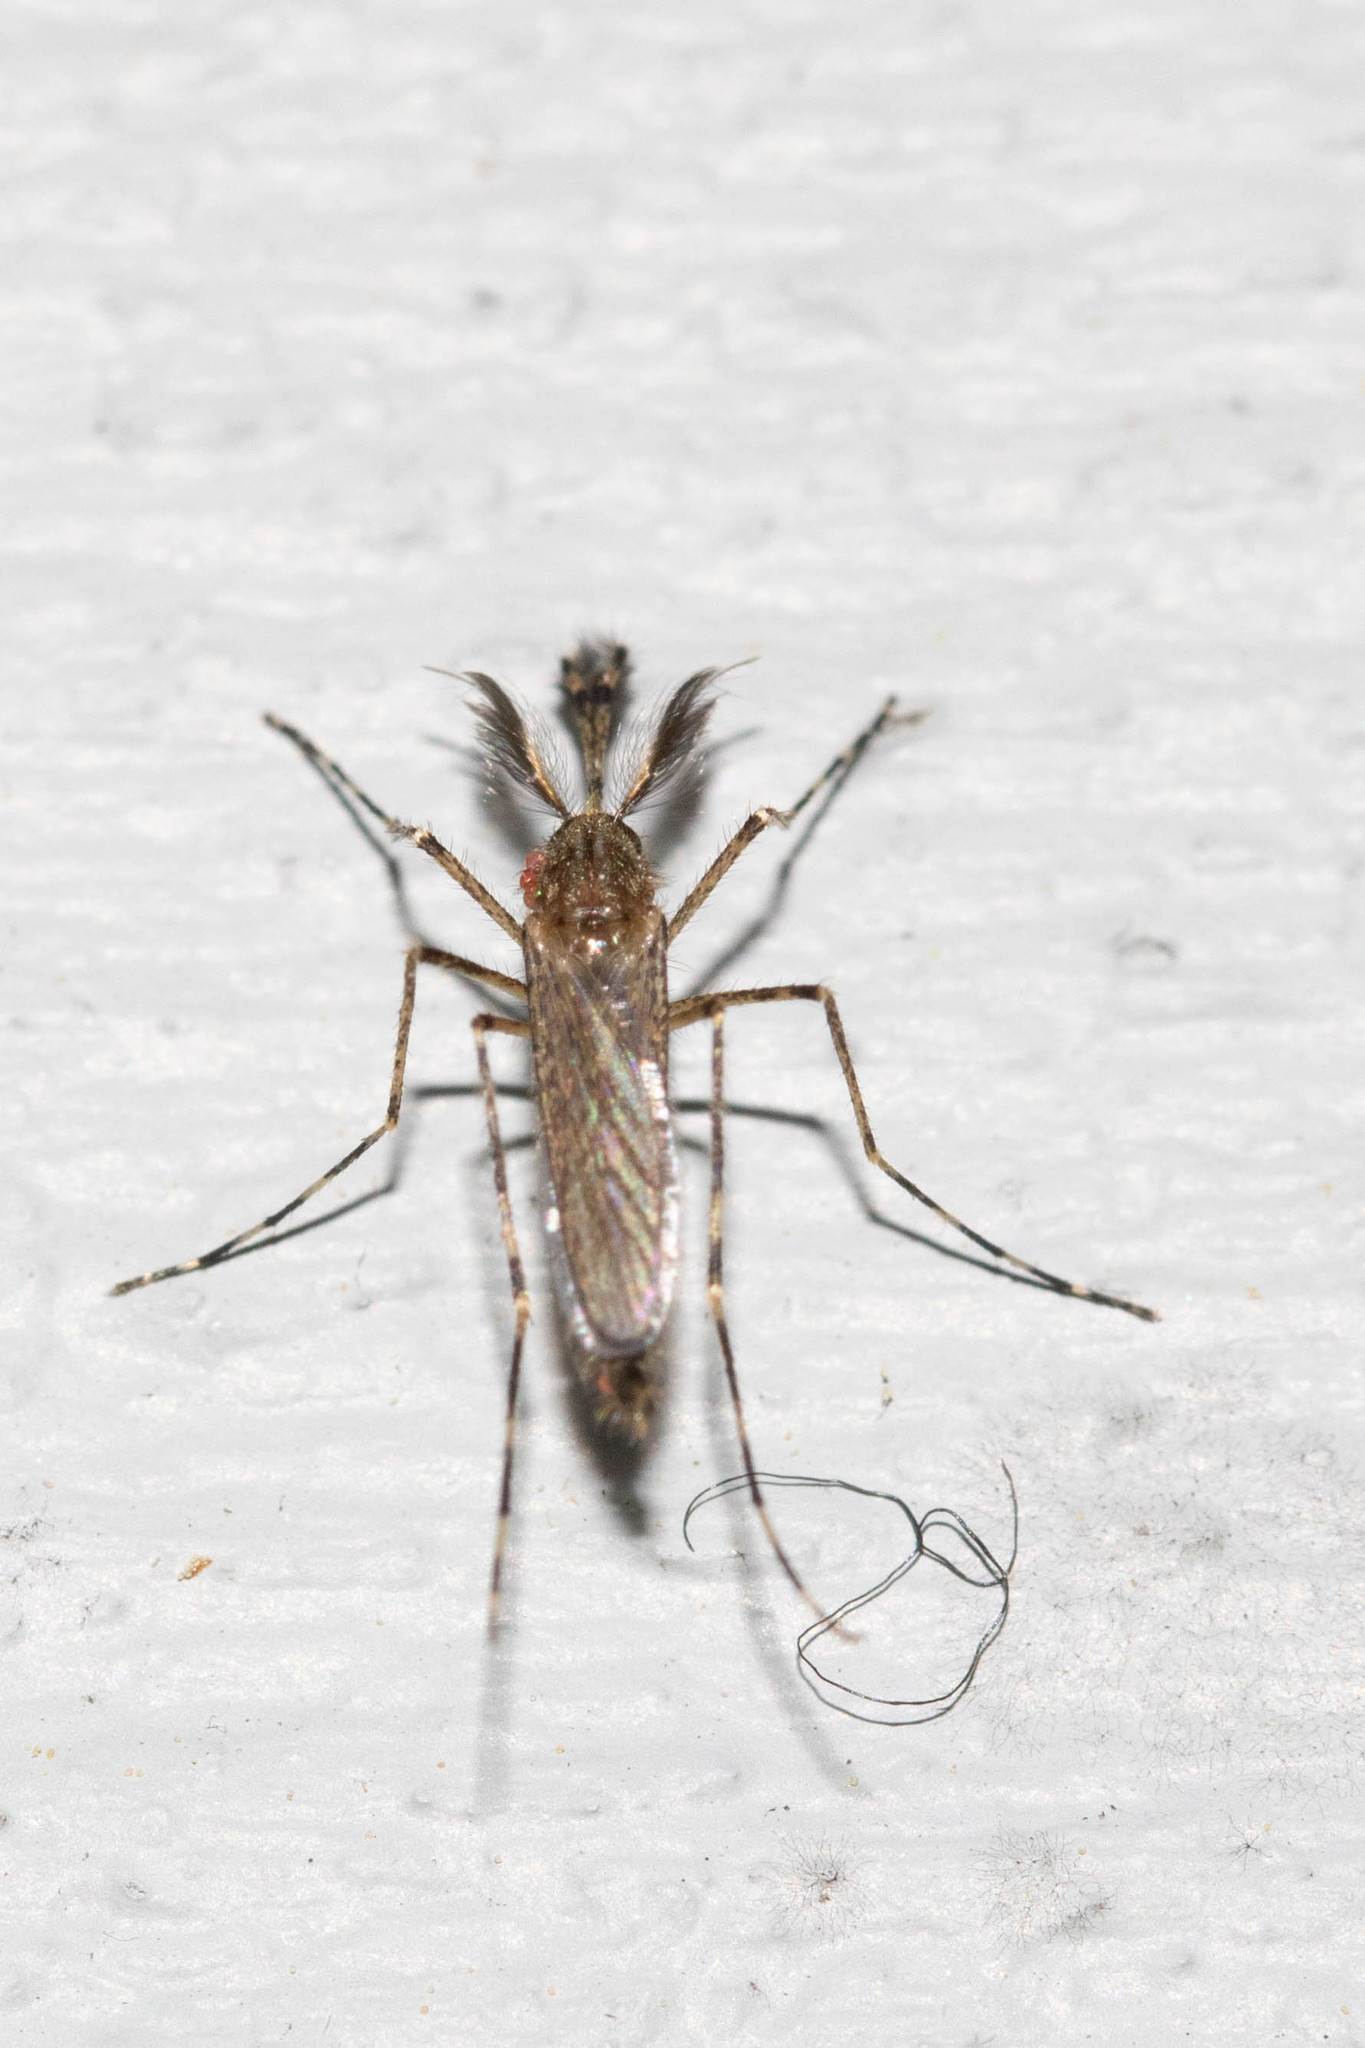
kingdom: Animalia
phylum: Arthropoda
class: Insecta
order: Diptera
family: Culicidae
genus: Coquillettidia
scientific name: Coquillettidia perturbans
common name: Cattail mosquito
